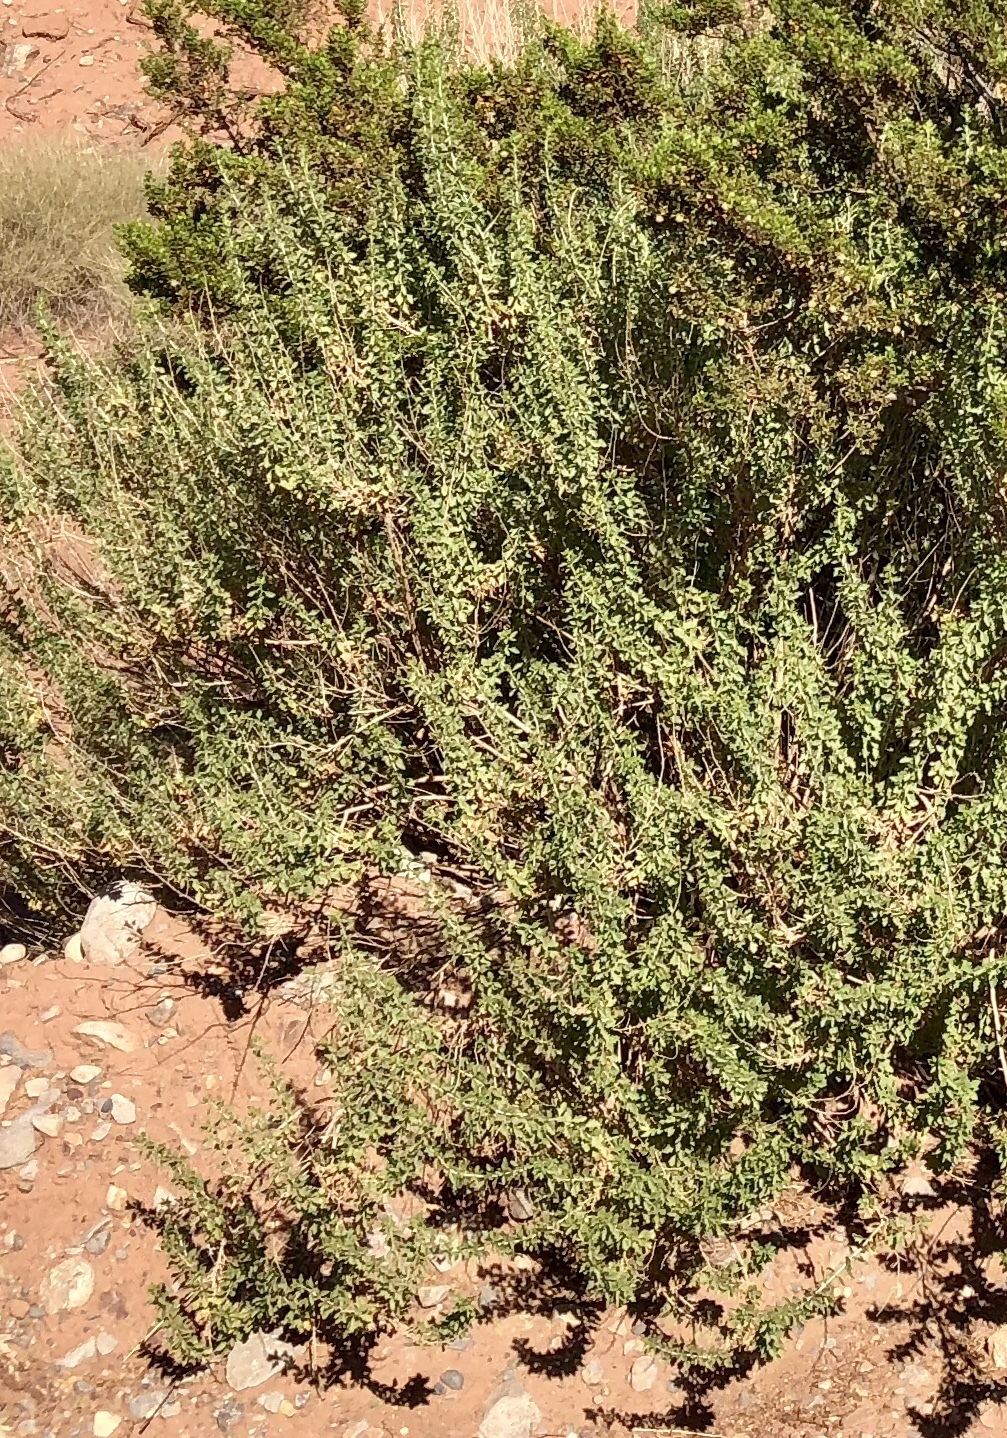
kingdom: Plantae
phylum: Tracheophyta
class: Magnoliopsida
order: Asterales
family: Asteraceae
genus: Brickellia
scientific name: Brickellia laciniata
